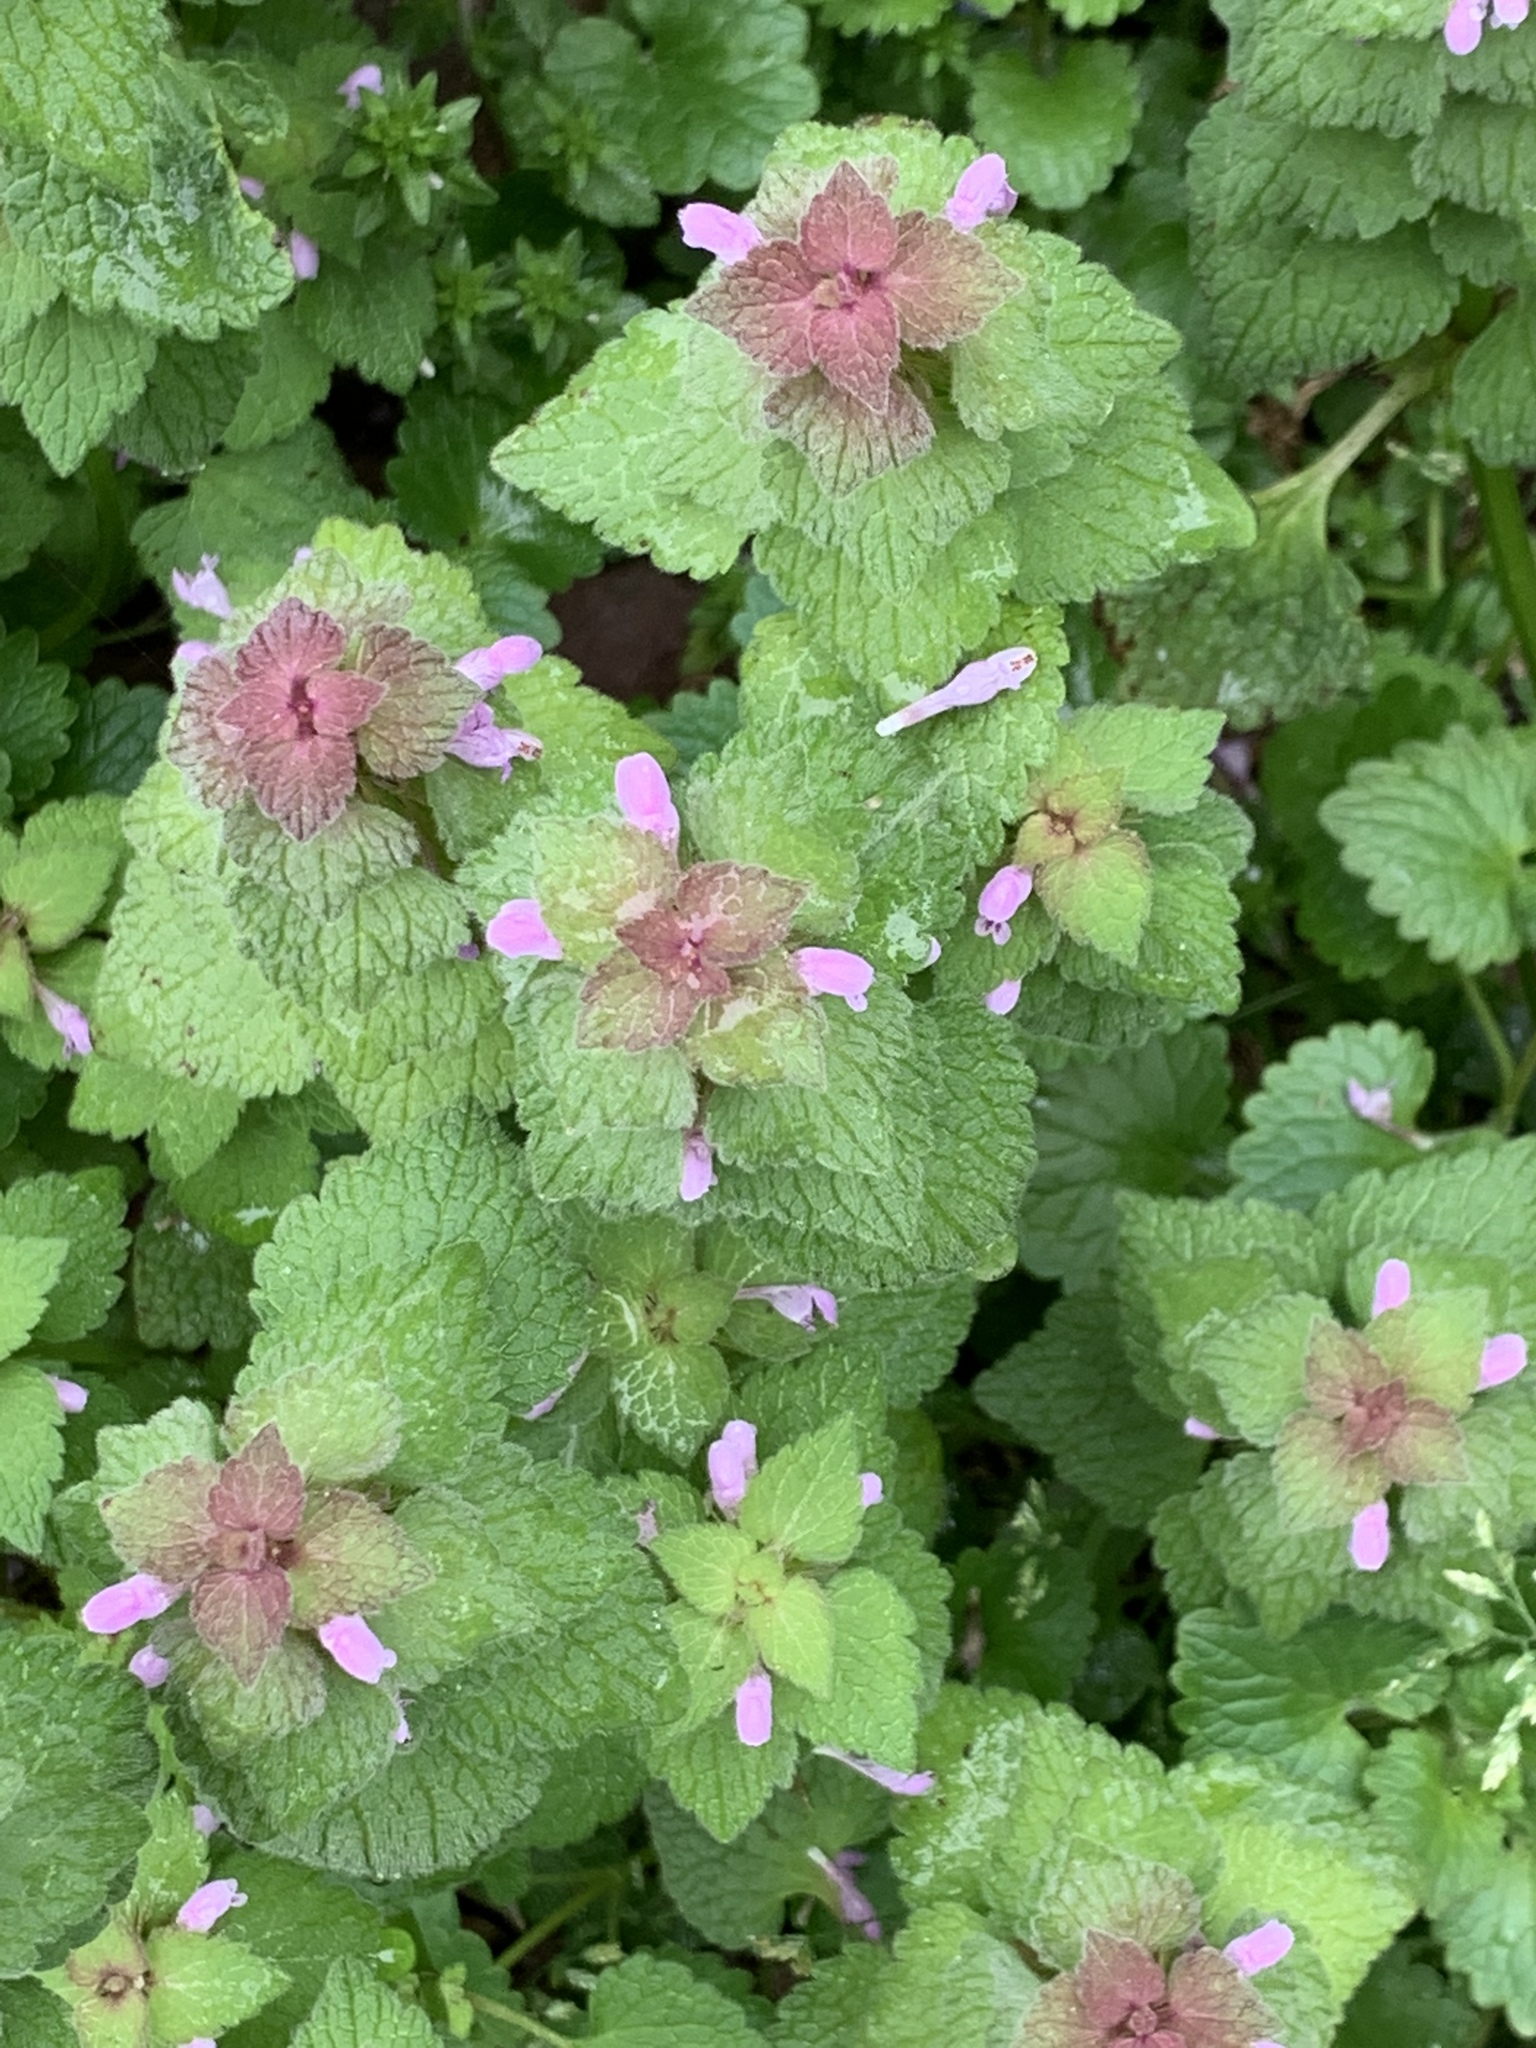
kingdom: Plantae
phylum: Tracheophyta
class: Magnoliopsida
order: Lamiales
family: Lamiaceae
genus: Lamium
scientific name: Lamium purpureum
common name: Red dead-nettle
